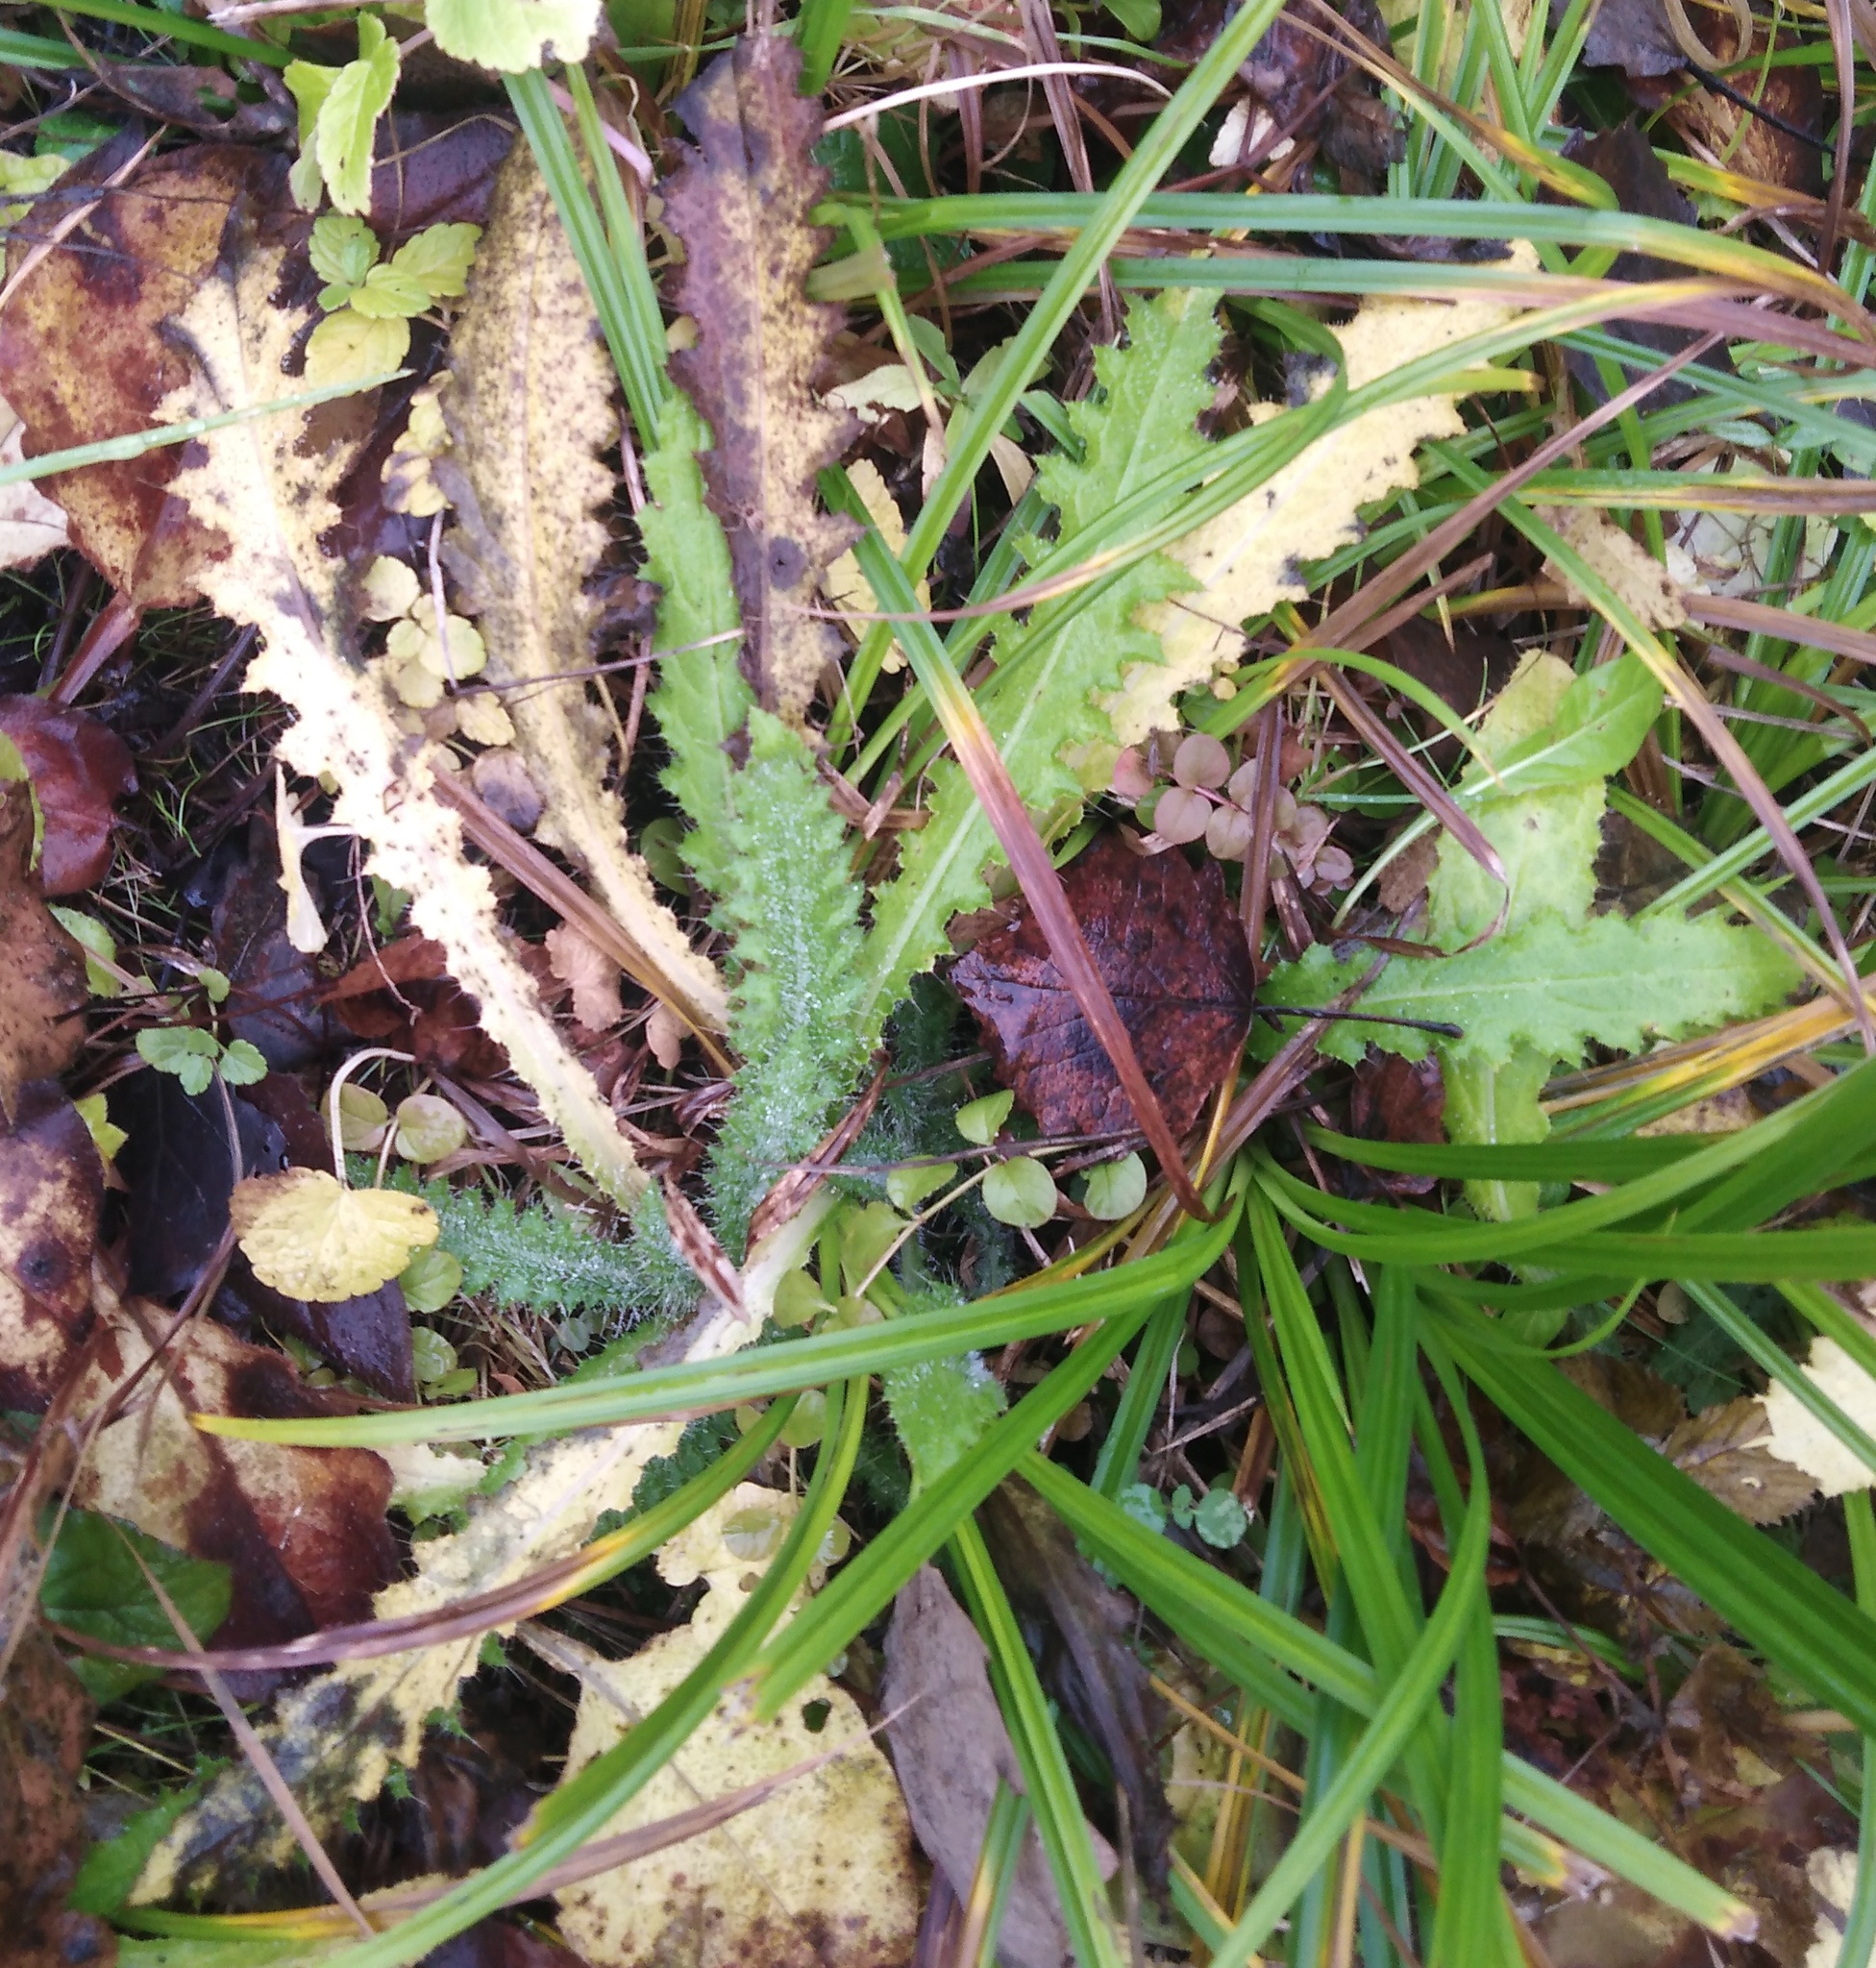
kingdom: Plantae
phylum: Tracheophyta
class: Magnoliopsida
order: Asterales
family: Asteraceae
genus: Cirsium
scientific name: Cirsium palustre
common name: Marsh thistle
